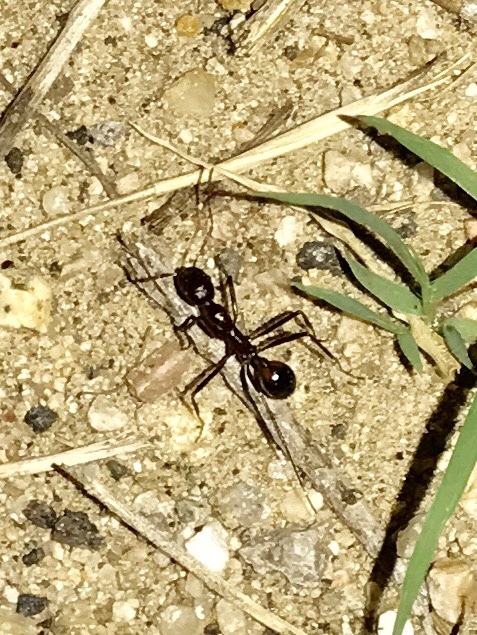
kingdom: Animalia
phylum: Arthropoda
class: Insecta
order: Hymenoptera
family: Formicidae
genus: Novomessor
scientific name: Novomessor cockerelli
